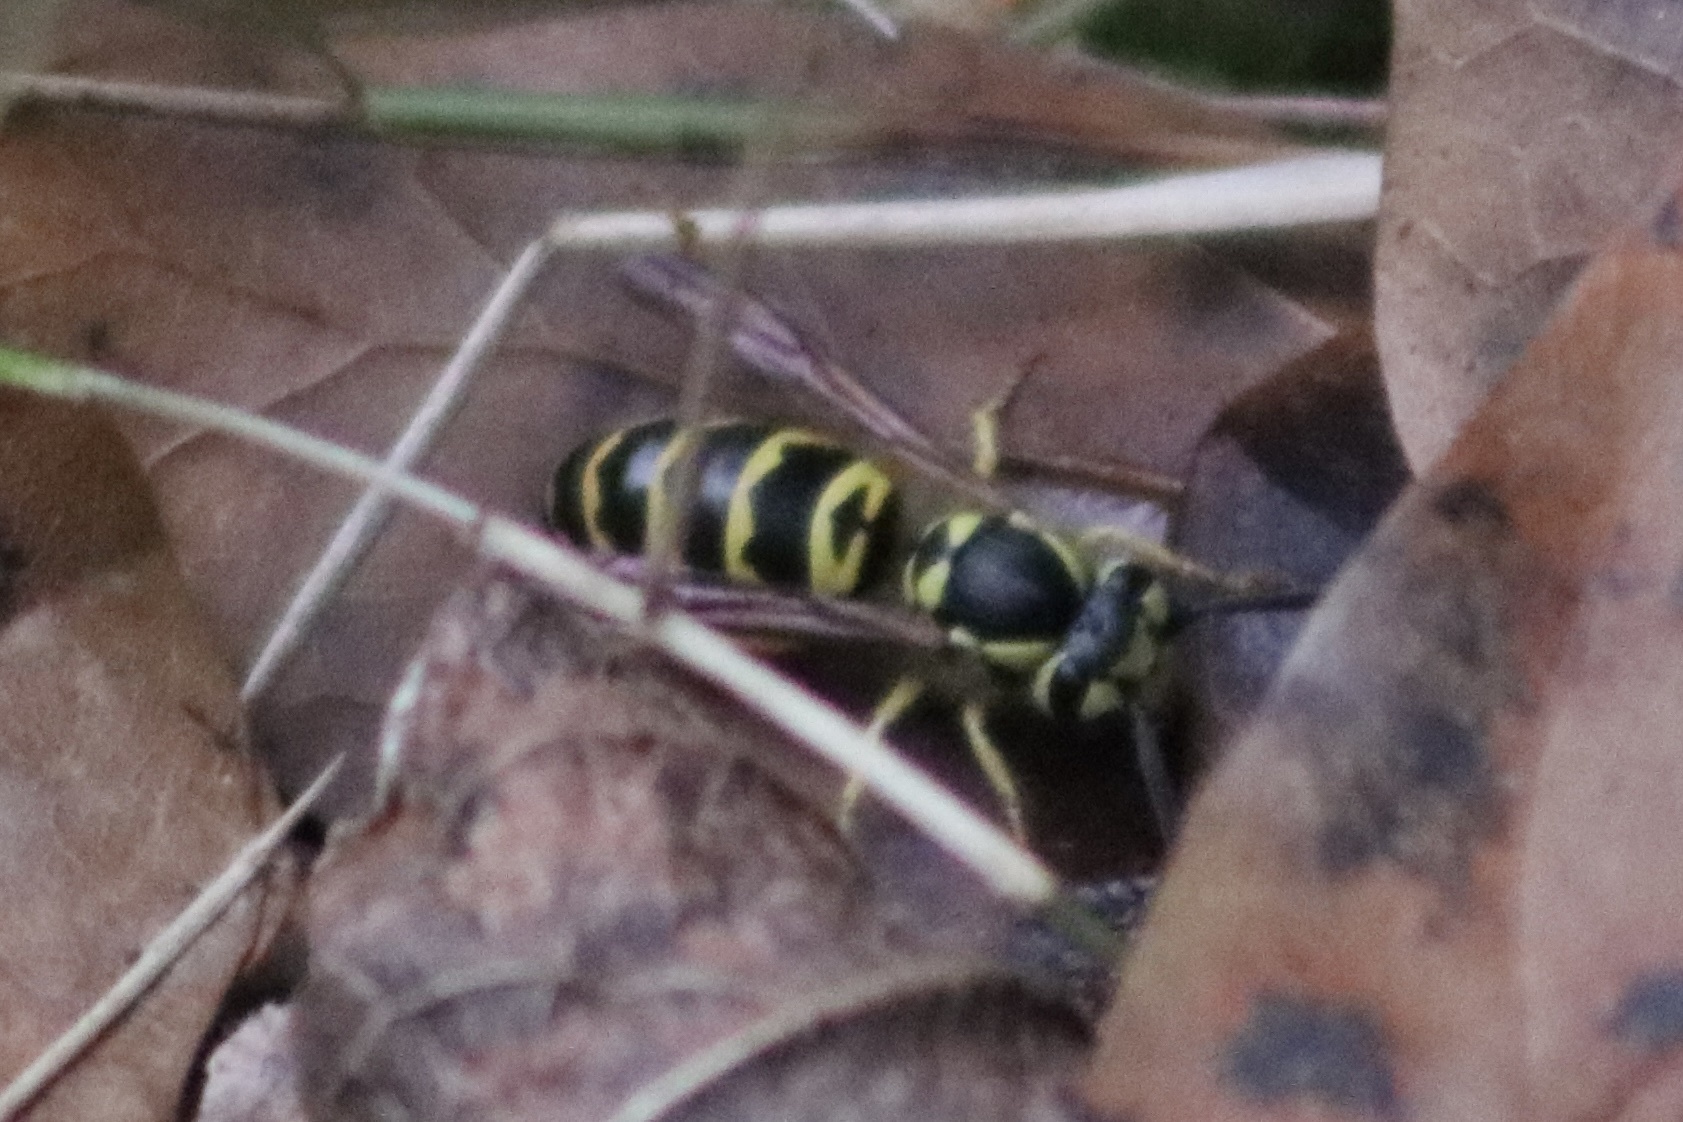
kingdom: Animalia
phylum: Arthropoda
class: Insecta
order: Hymenoptera
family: Vespidae
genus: Vespula
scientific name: Vespula maculifrons
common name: Eastern yellowjacket
